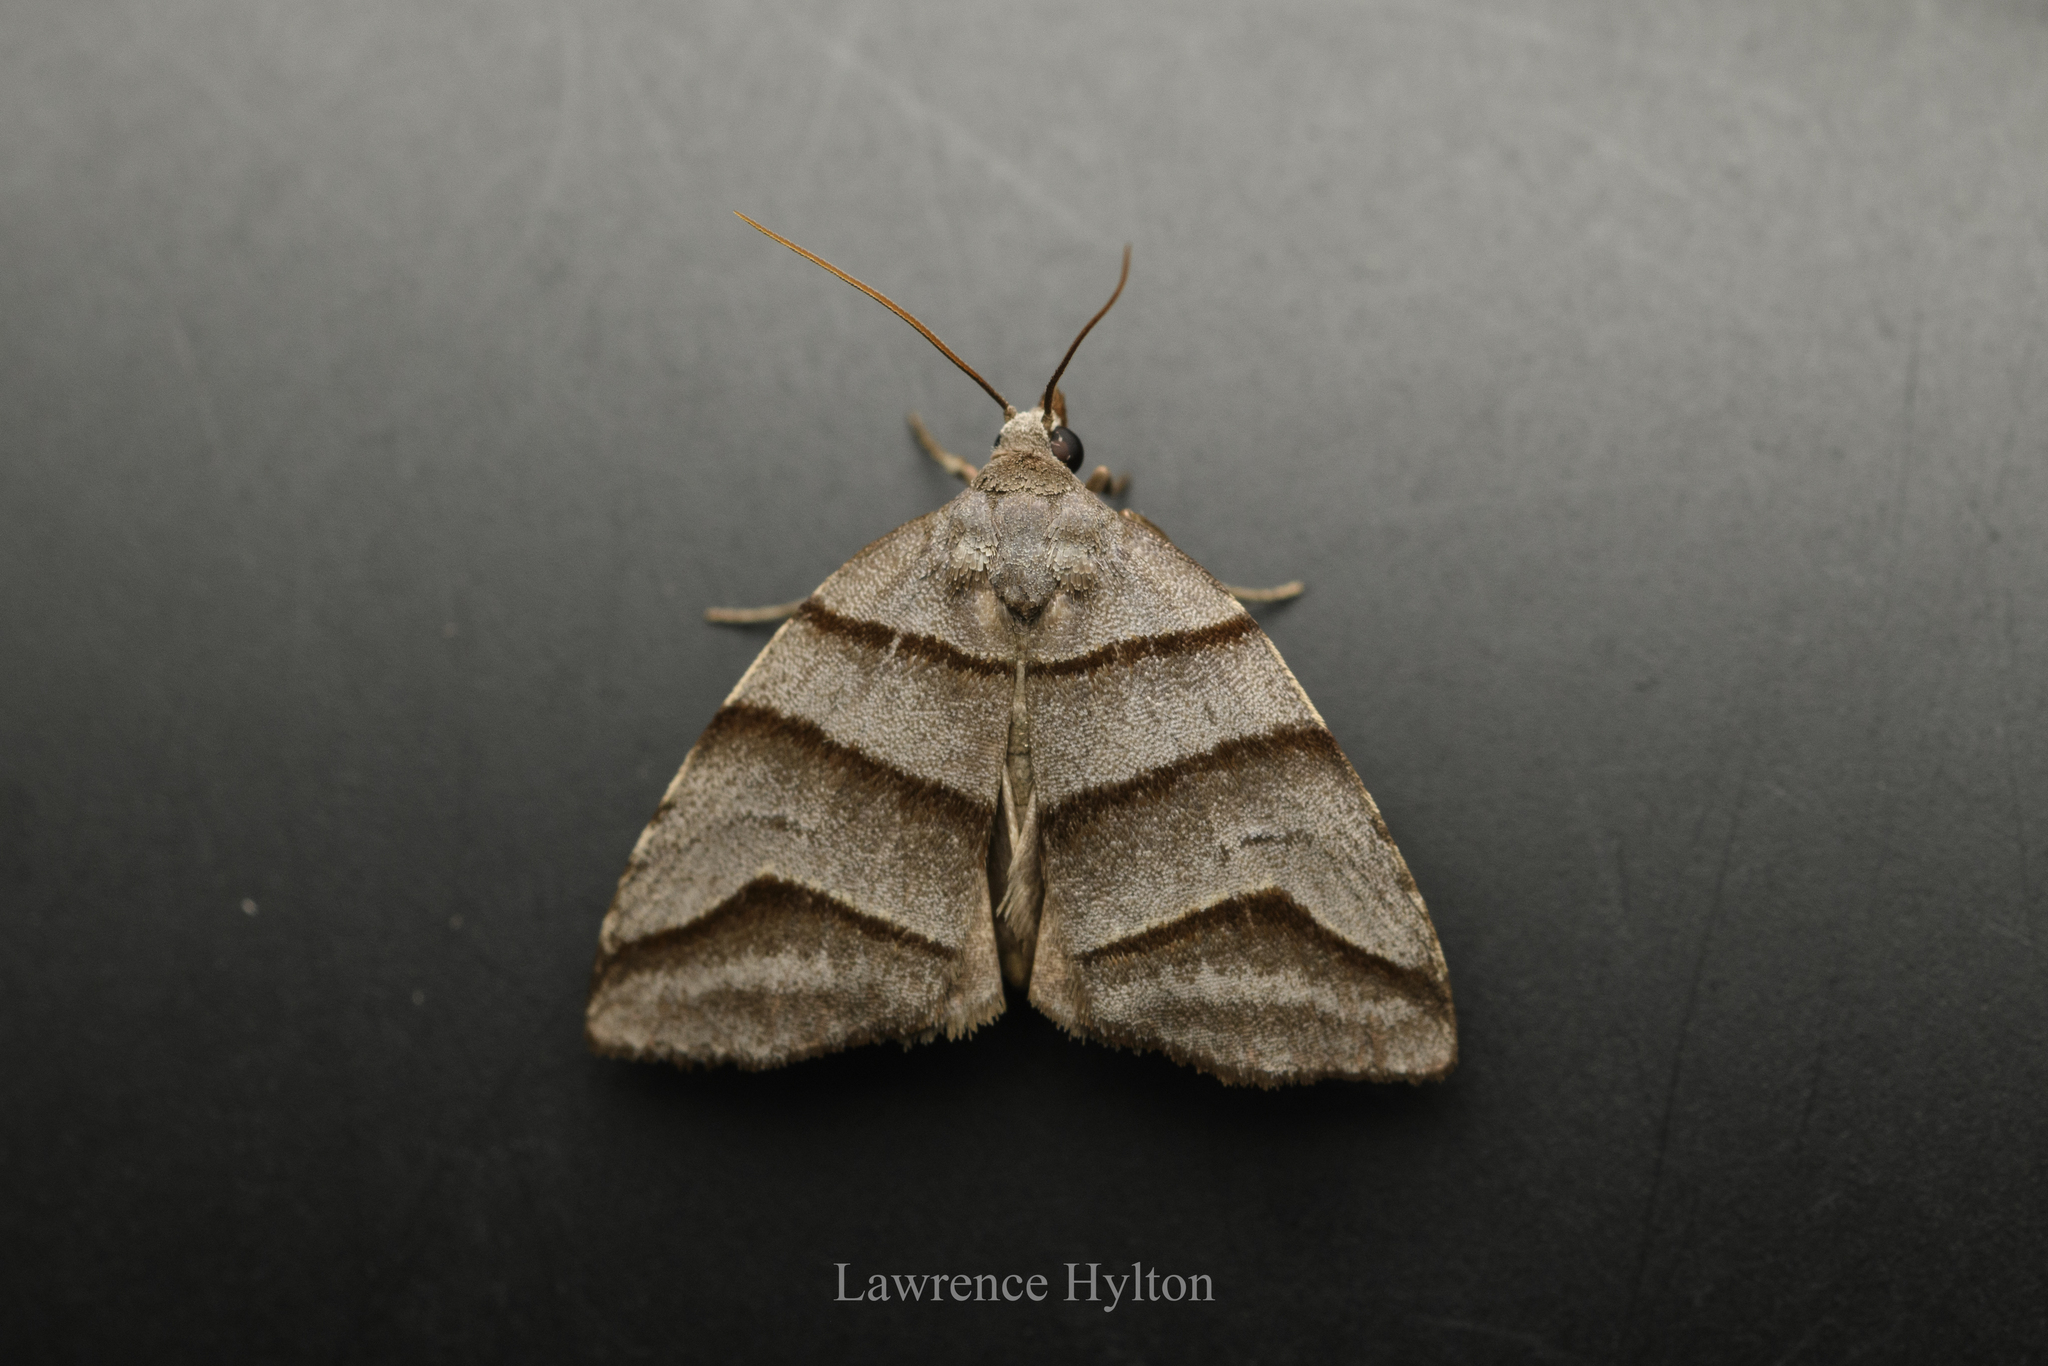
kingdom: Animalia
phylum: Arthropoda
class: Insecta
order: Lepidoptera
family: Noctuidae
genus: Flammona
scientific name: Flammona trilineata
